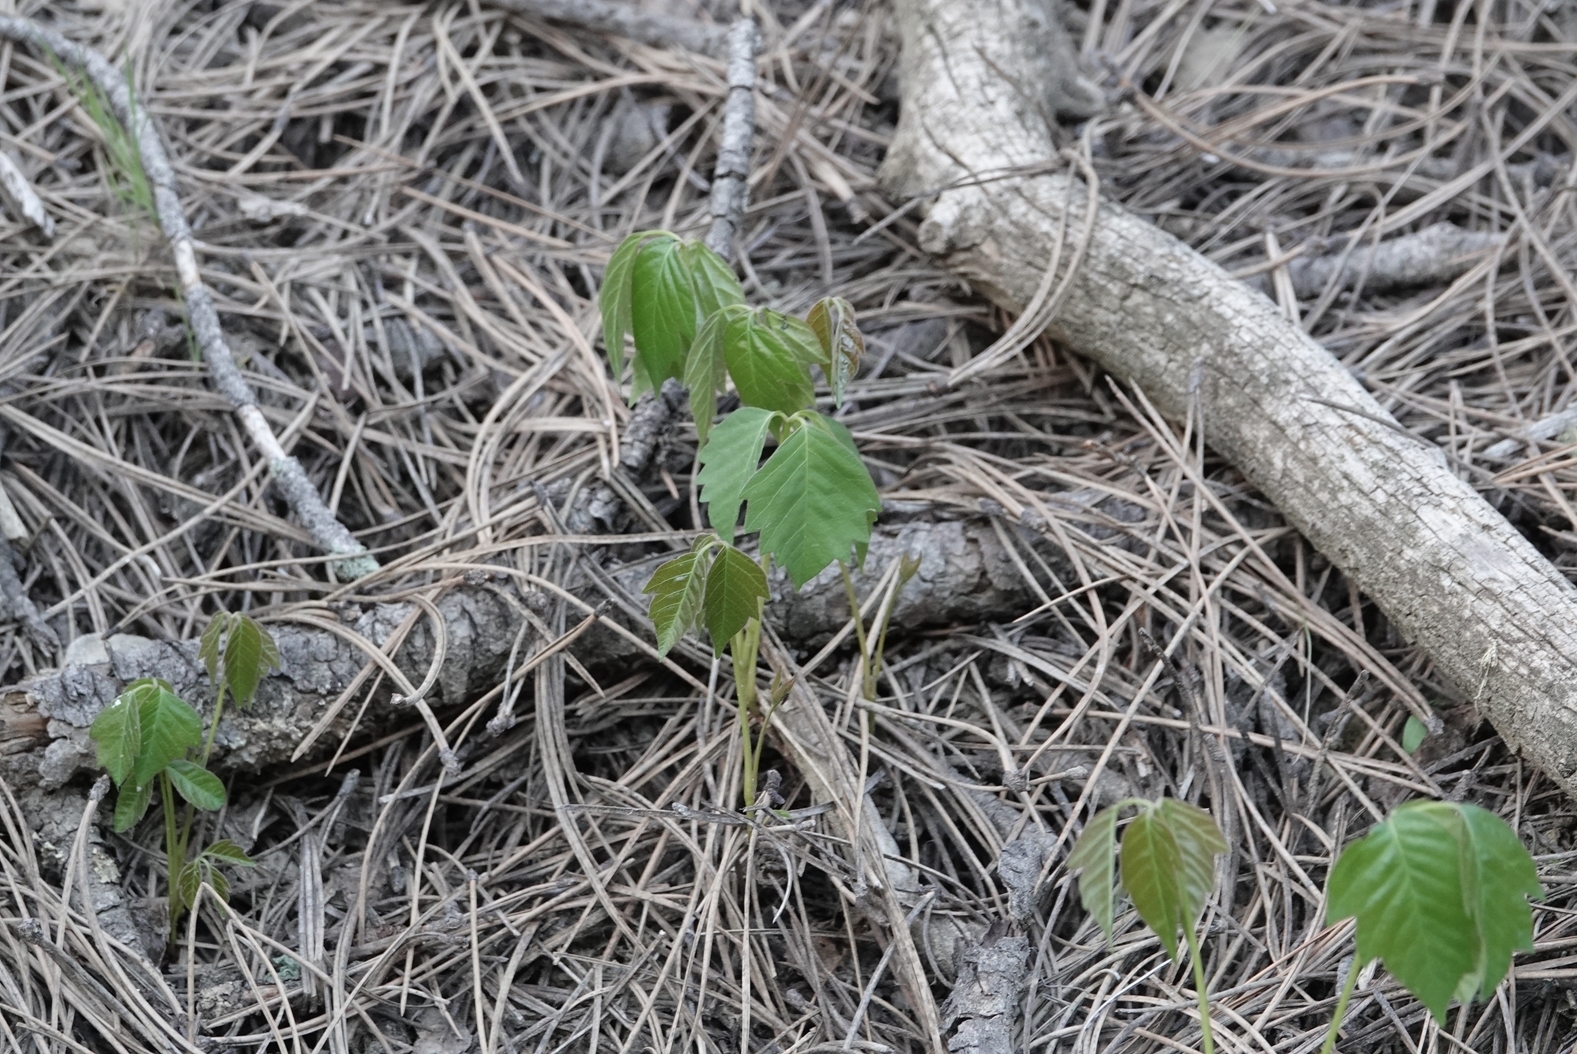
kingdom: Plantae
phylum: Tracheophyta
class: Magnoliopsida
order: Sapindales
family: Anacardiaceae
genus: Toxicodendron
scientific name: Toxicodendron rydbergii
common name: Rydberg's poison-ivy
